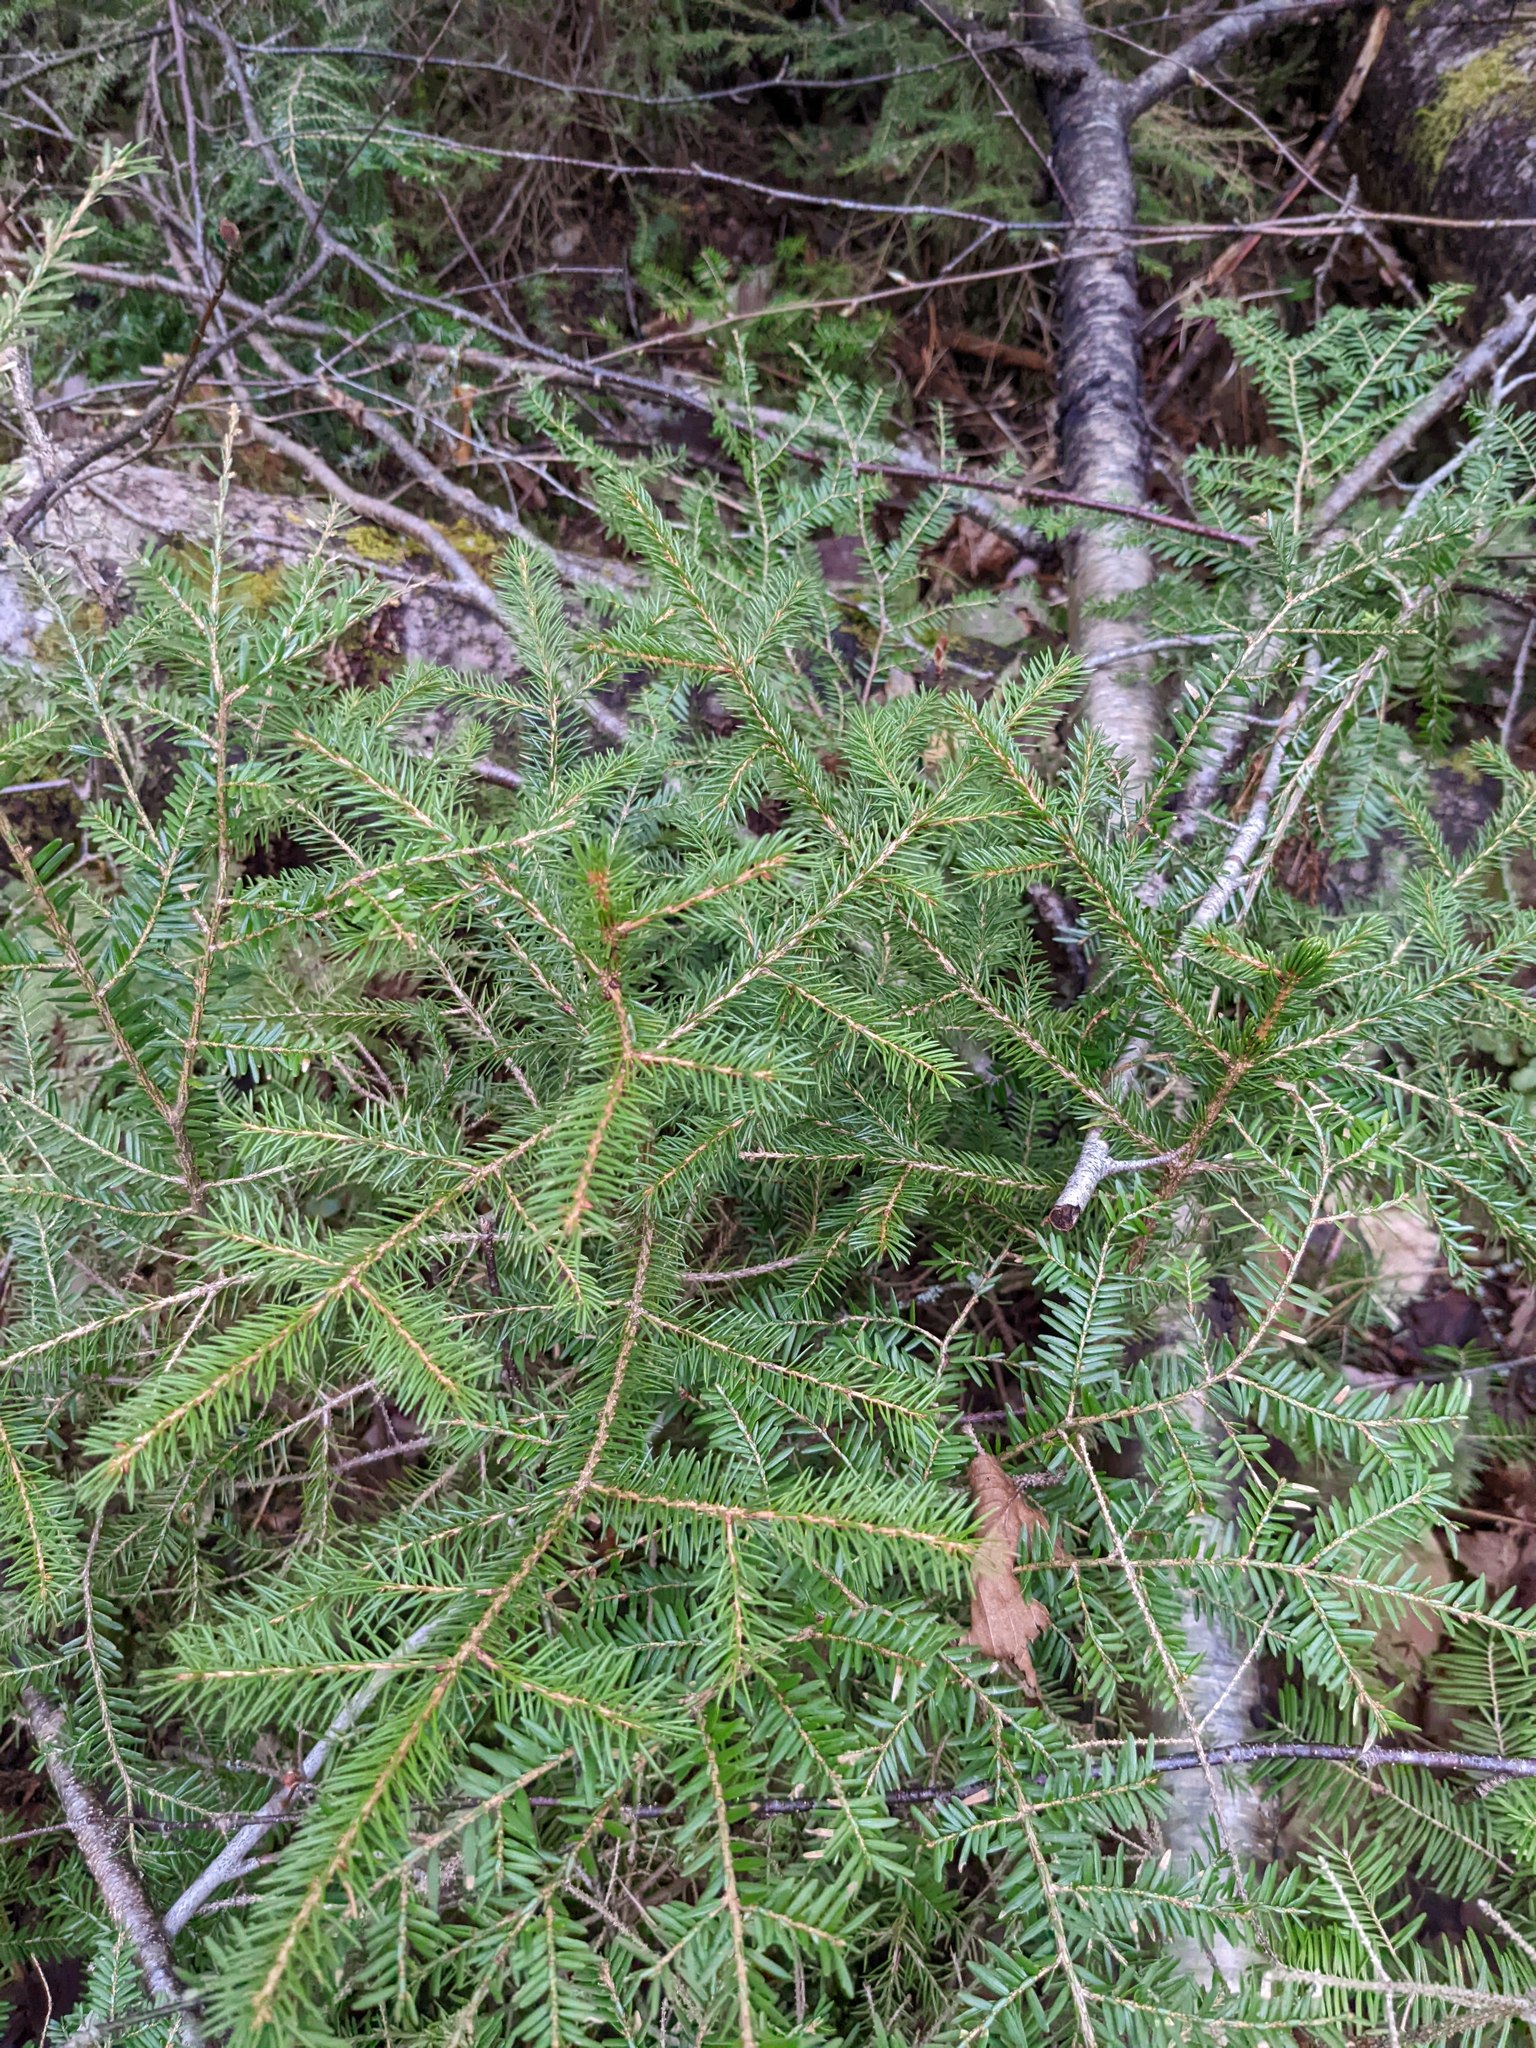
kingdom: Plantae
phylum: Tracheophyta
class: Pinopsida
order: Pinales
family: Pinaceae
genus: Picea
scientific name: Picea rubens
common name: Red spruce
